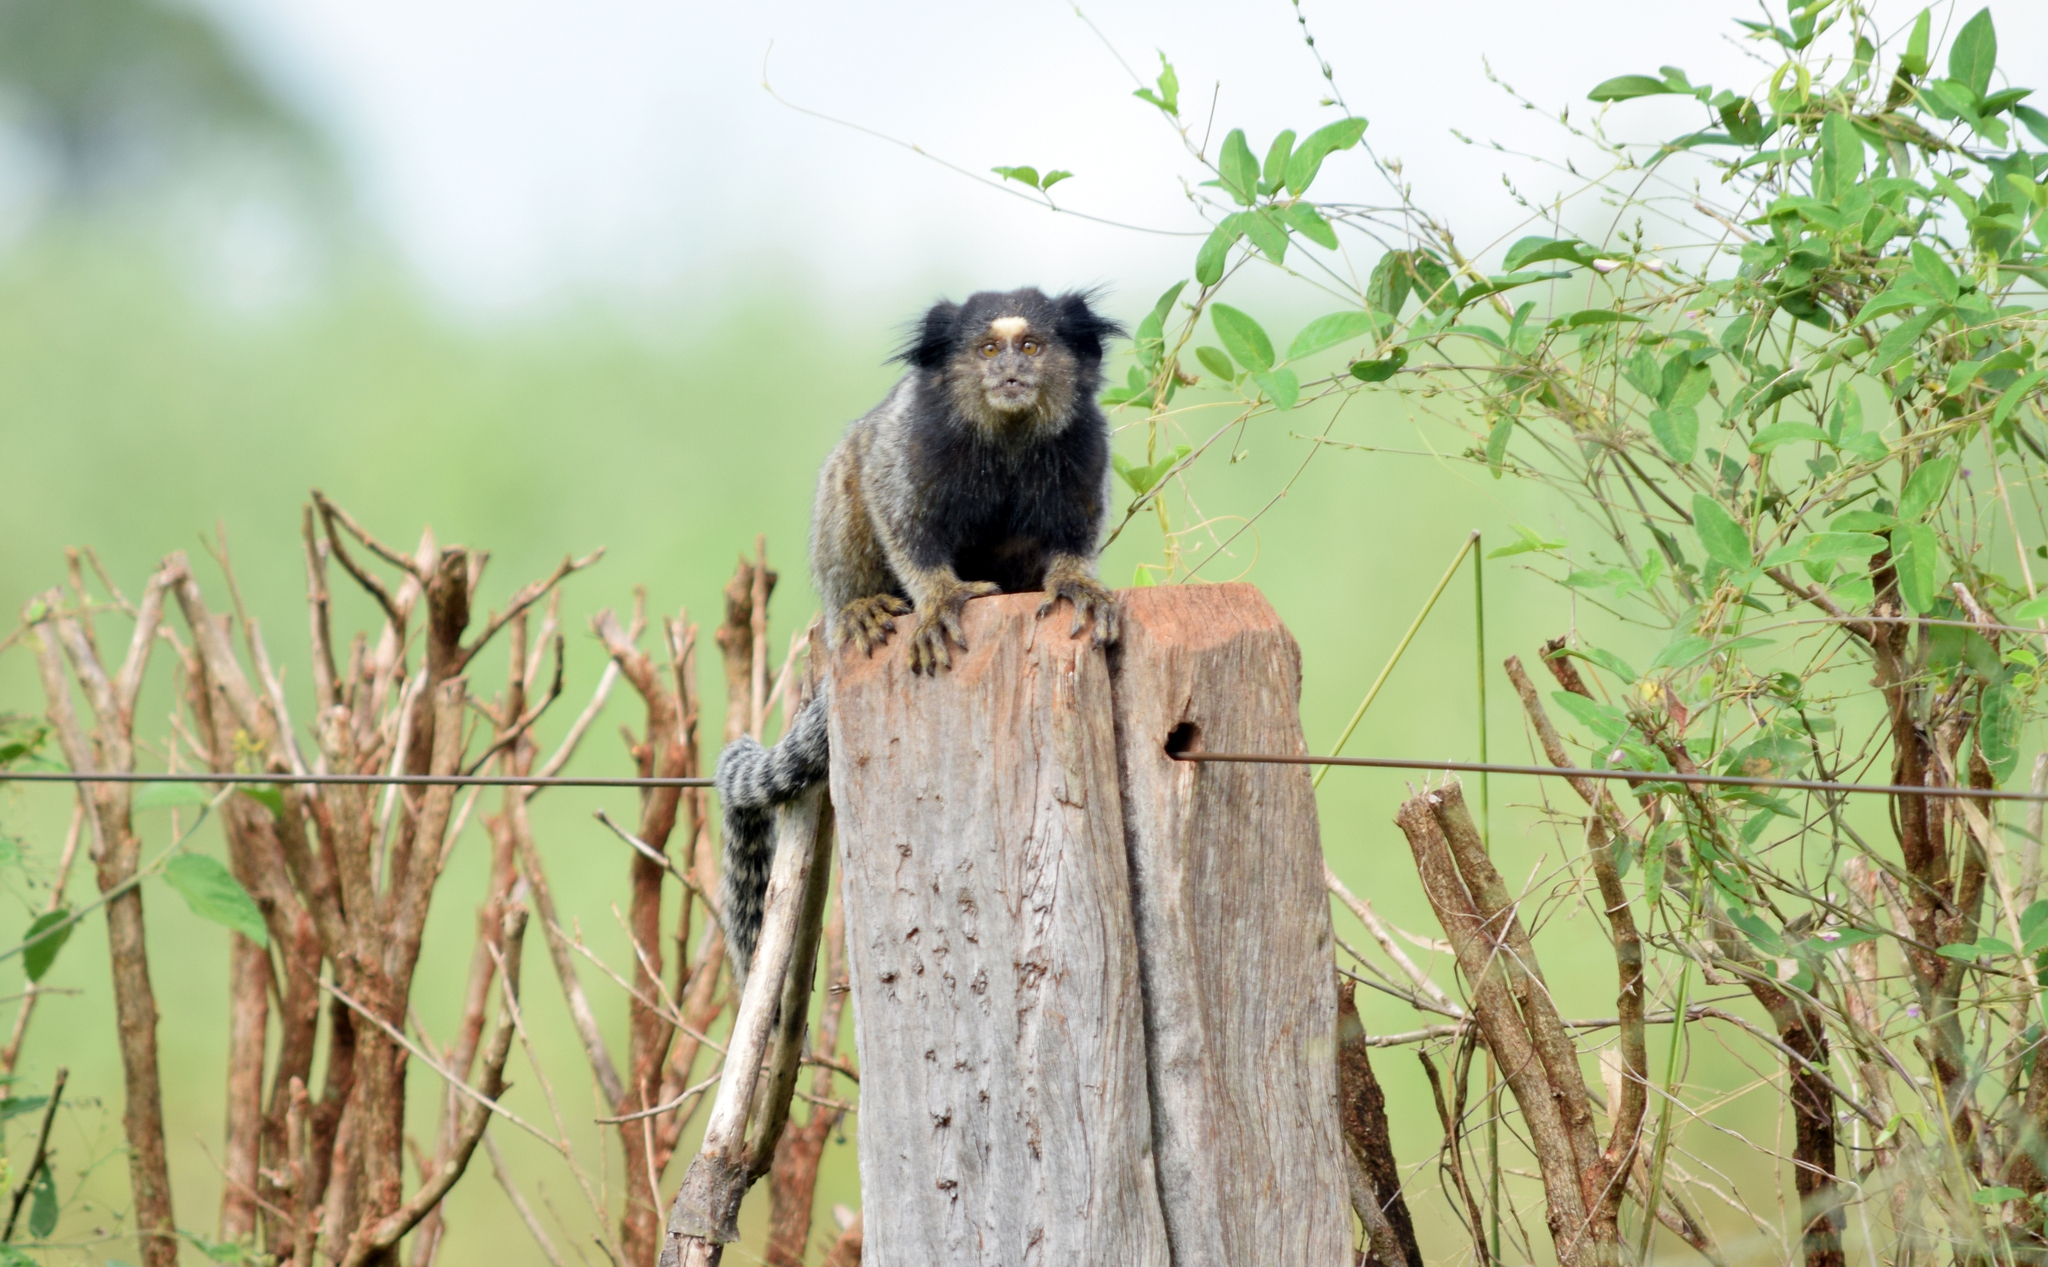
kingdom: Animalia
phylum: Chordata
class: Mammalia
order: Primates
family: Callitrichidae
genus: Callithrix
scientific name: Callithrix penicillata
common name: Black-tufted marmoset
